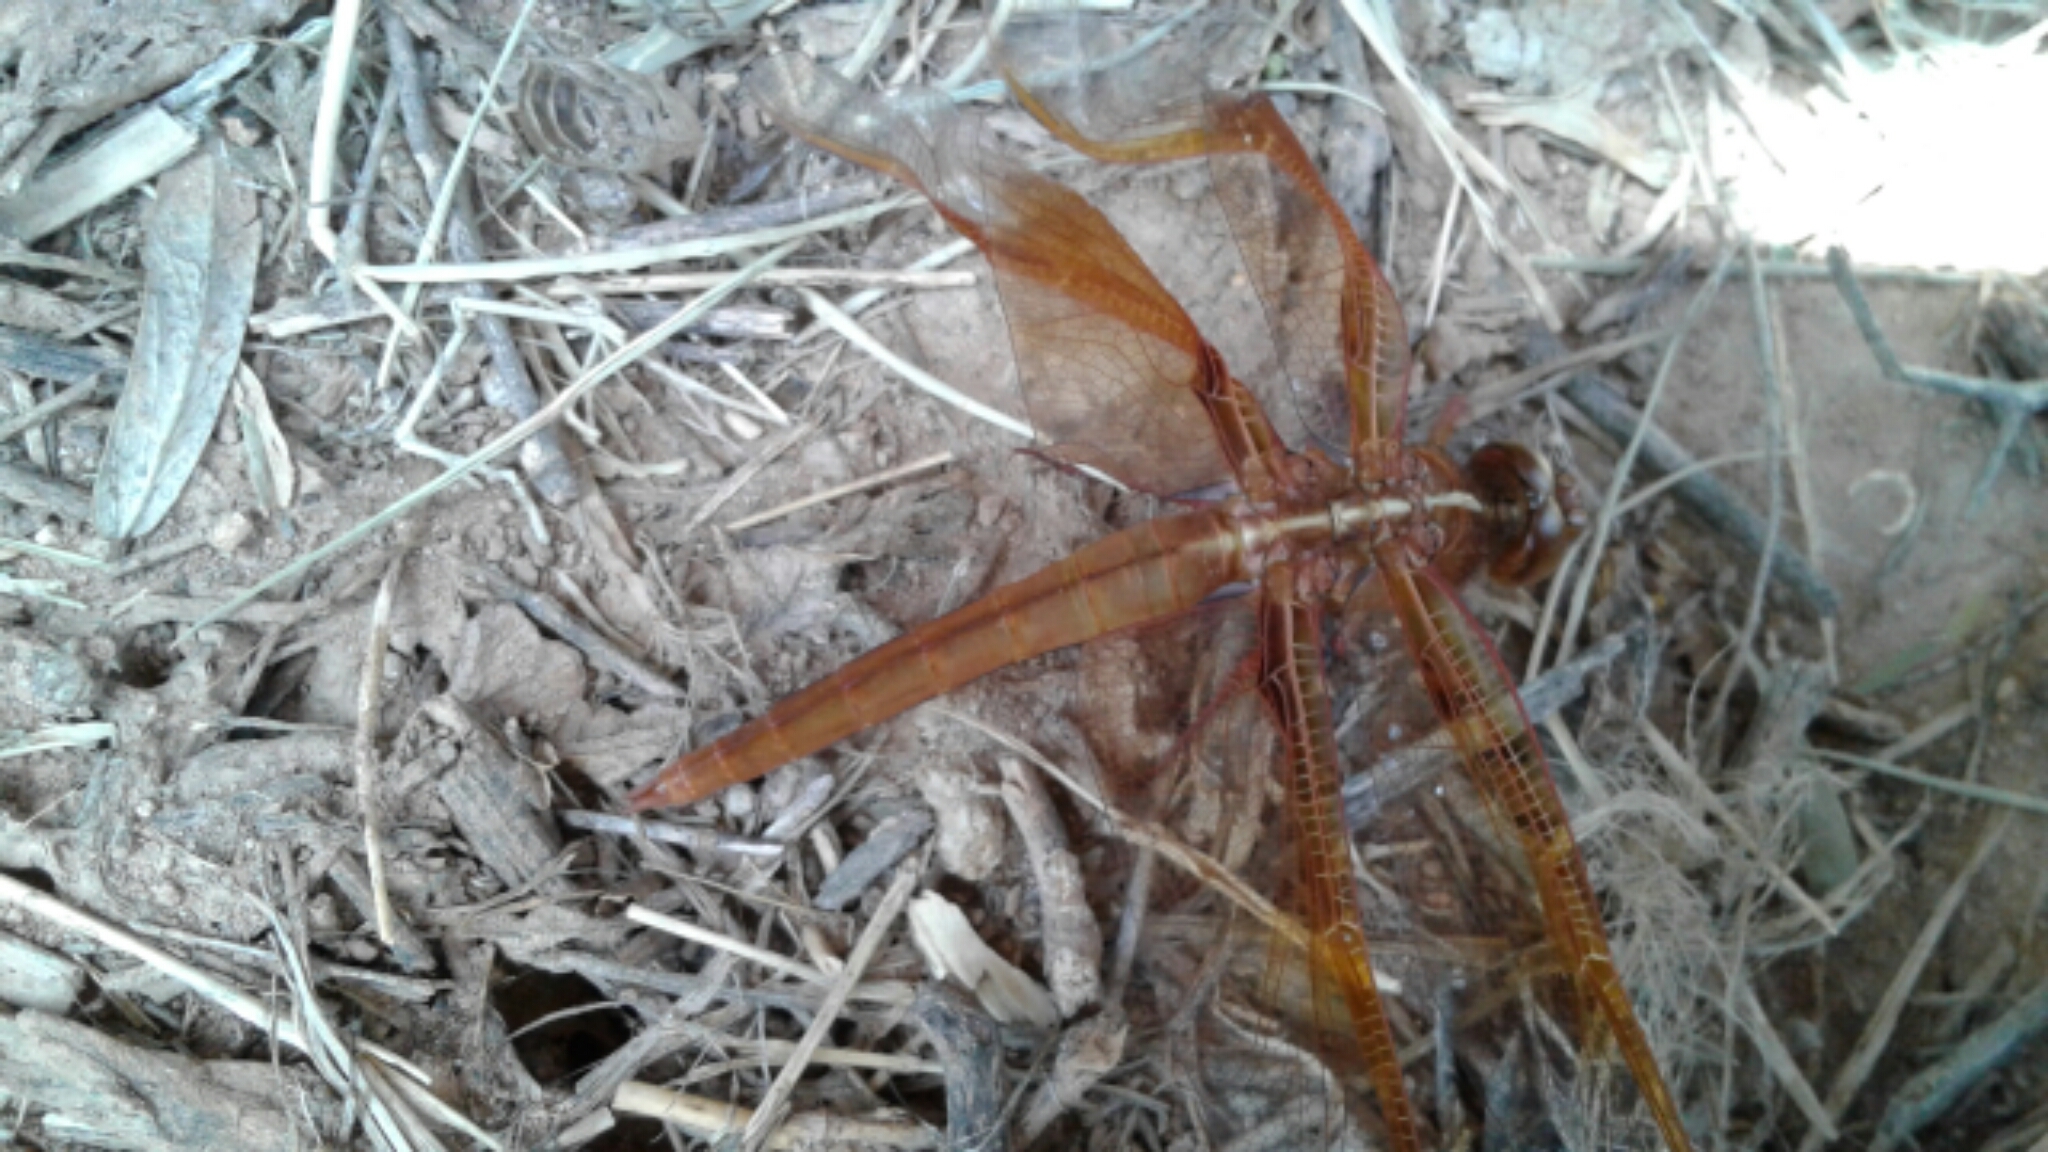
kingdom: Animalia
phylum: Arthropoda
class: Insecta
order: Odonata
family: Libellulidae
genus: Libellula
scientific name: Libellula saturata
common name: Flame skimmer
